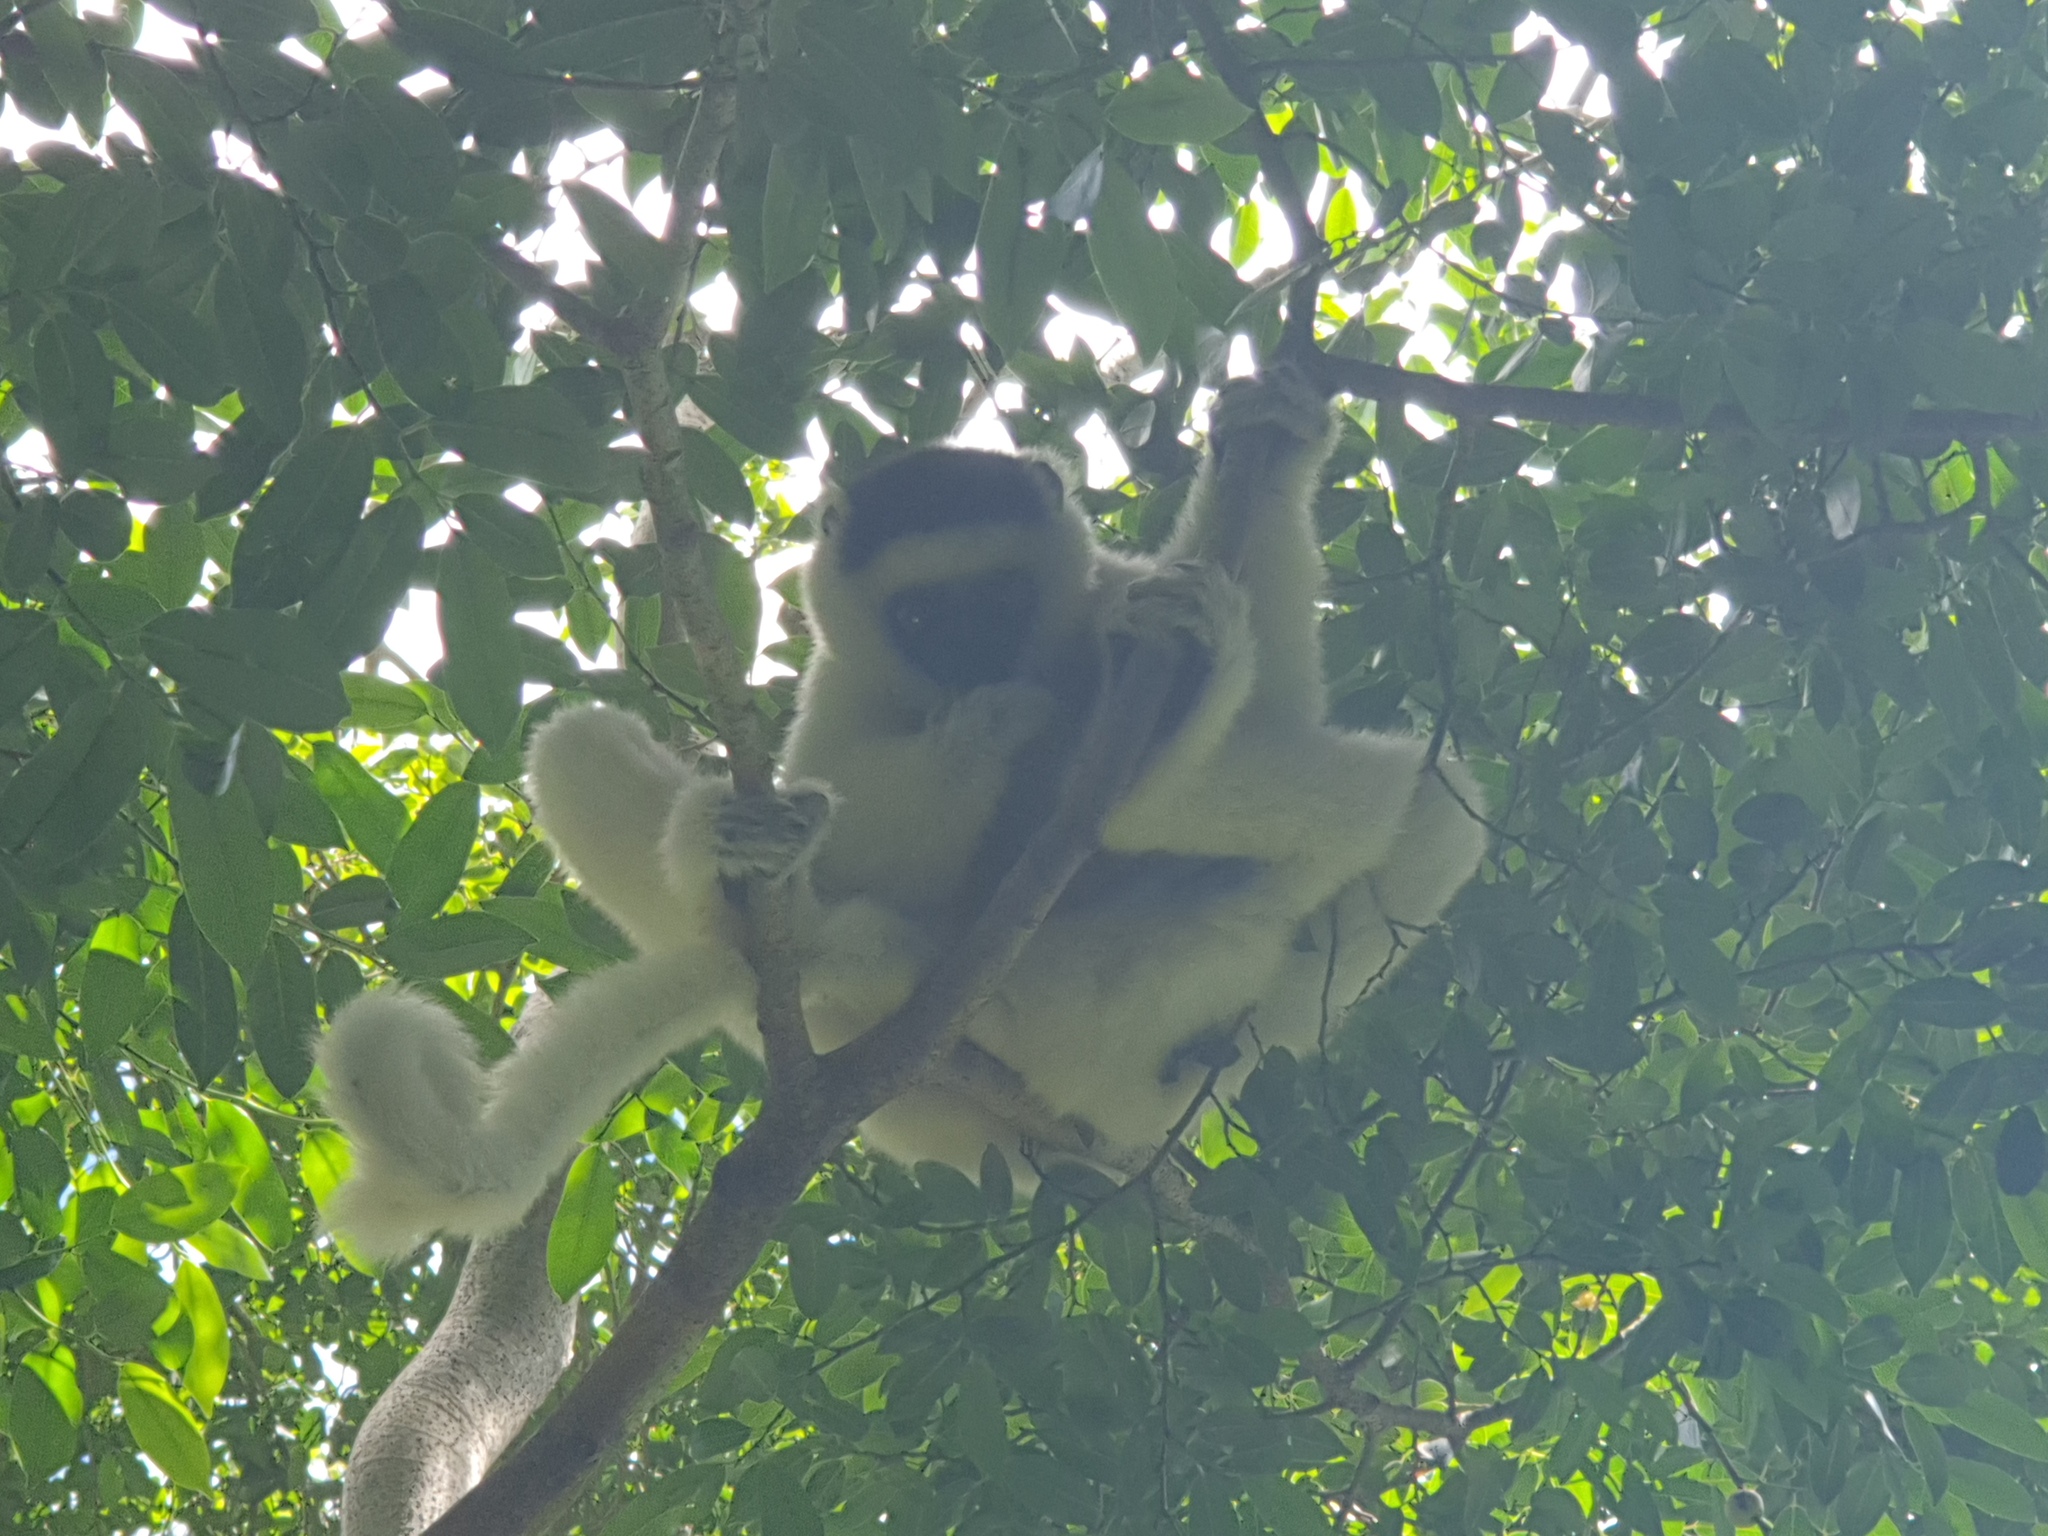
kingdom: Animalia
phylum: Chordata
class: Mammalia
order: Primates
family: Indriidae
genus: Propithecus
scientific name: Propithecus verreauxi
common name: Verreaux's sifaka
